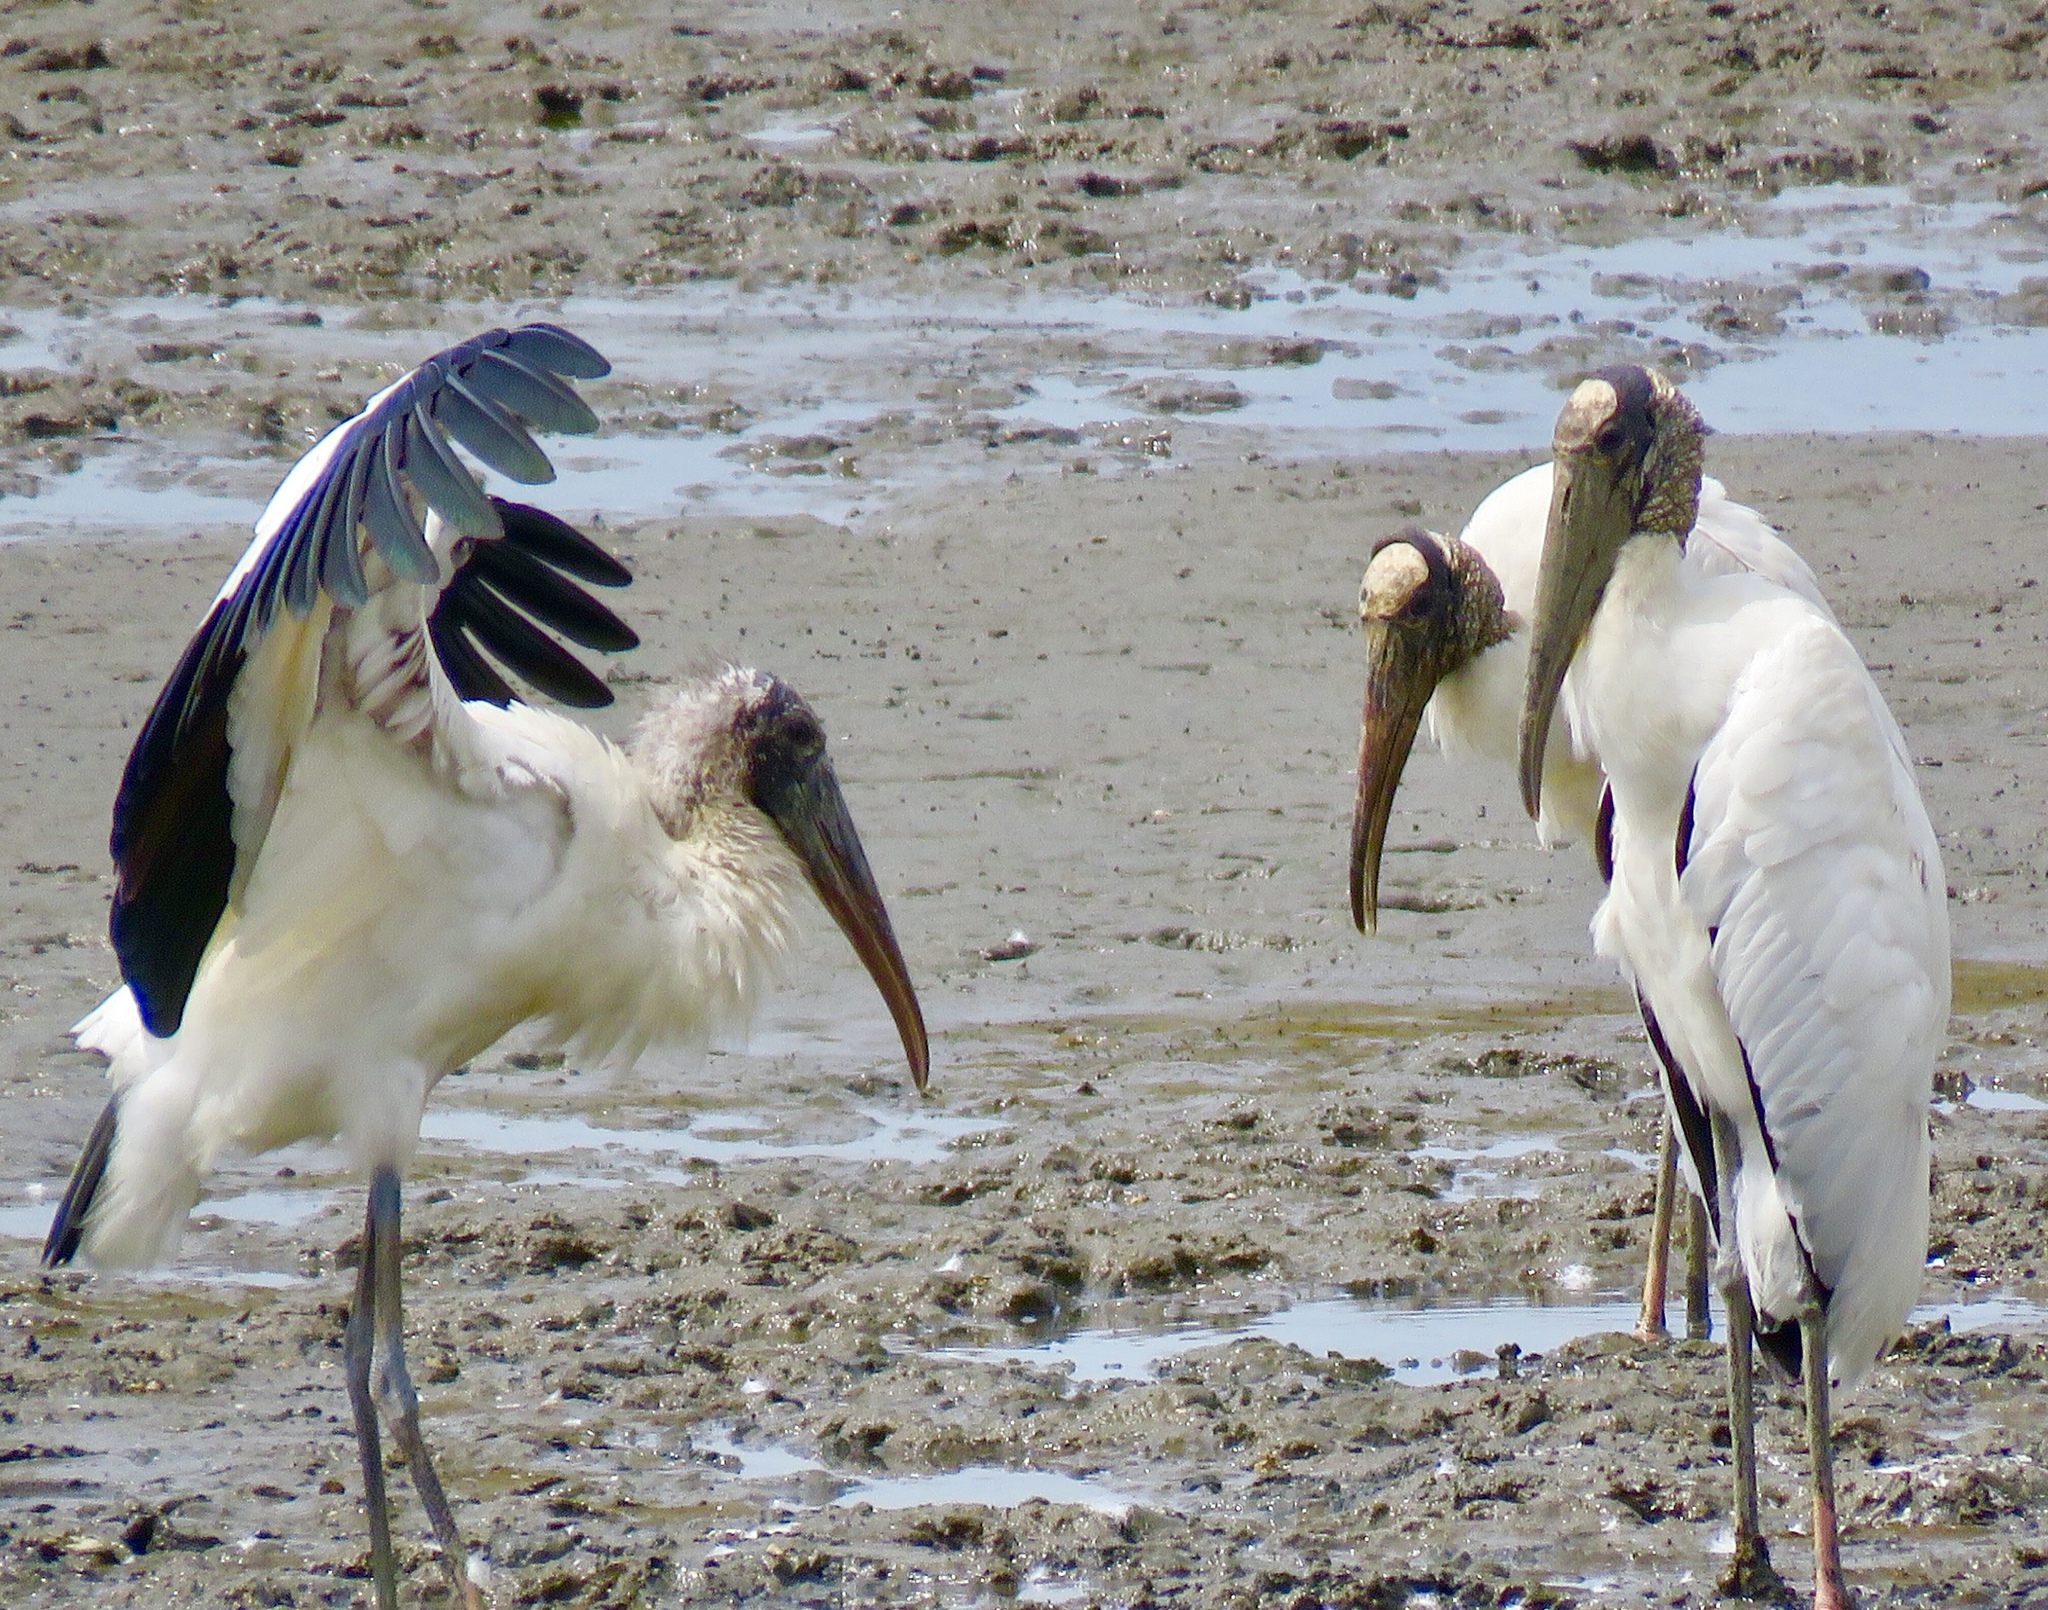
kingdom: Animalia
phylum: Chordata
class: Aves
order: Ciconiiformes
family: Ciconiidae
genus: Mycteria
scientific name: Mycteria americana
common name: Wood stork
